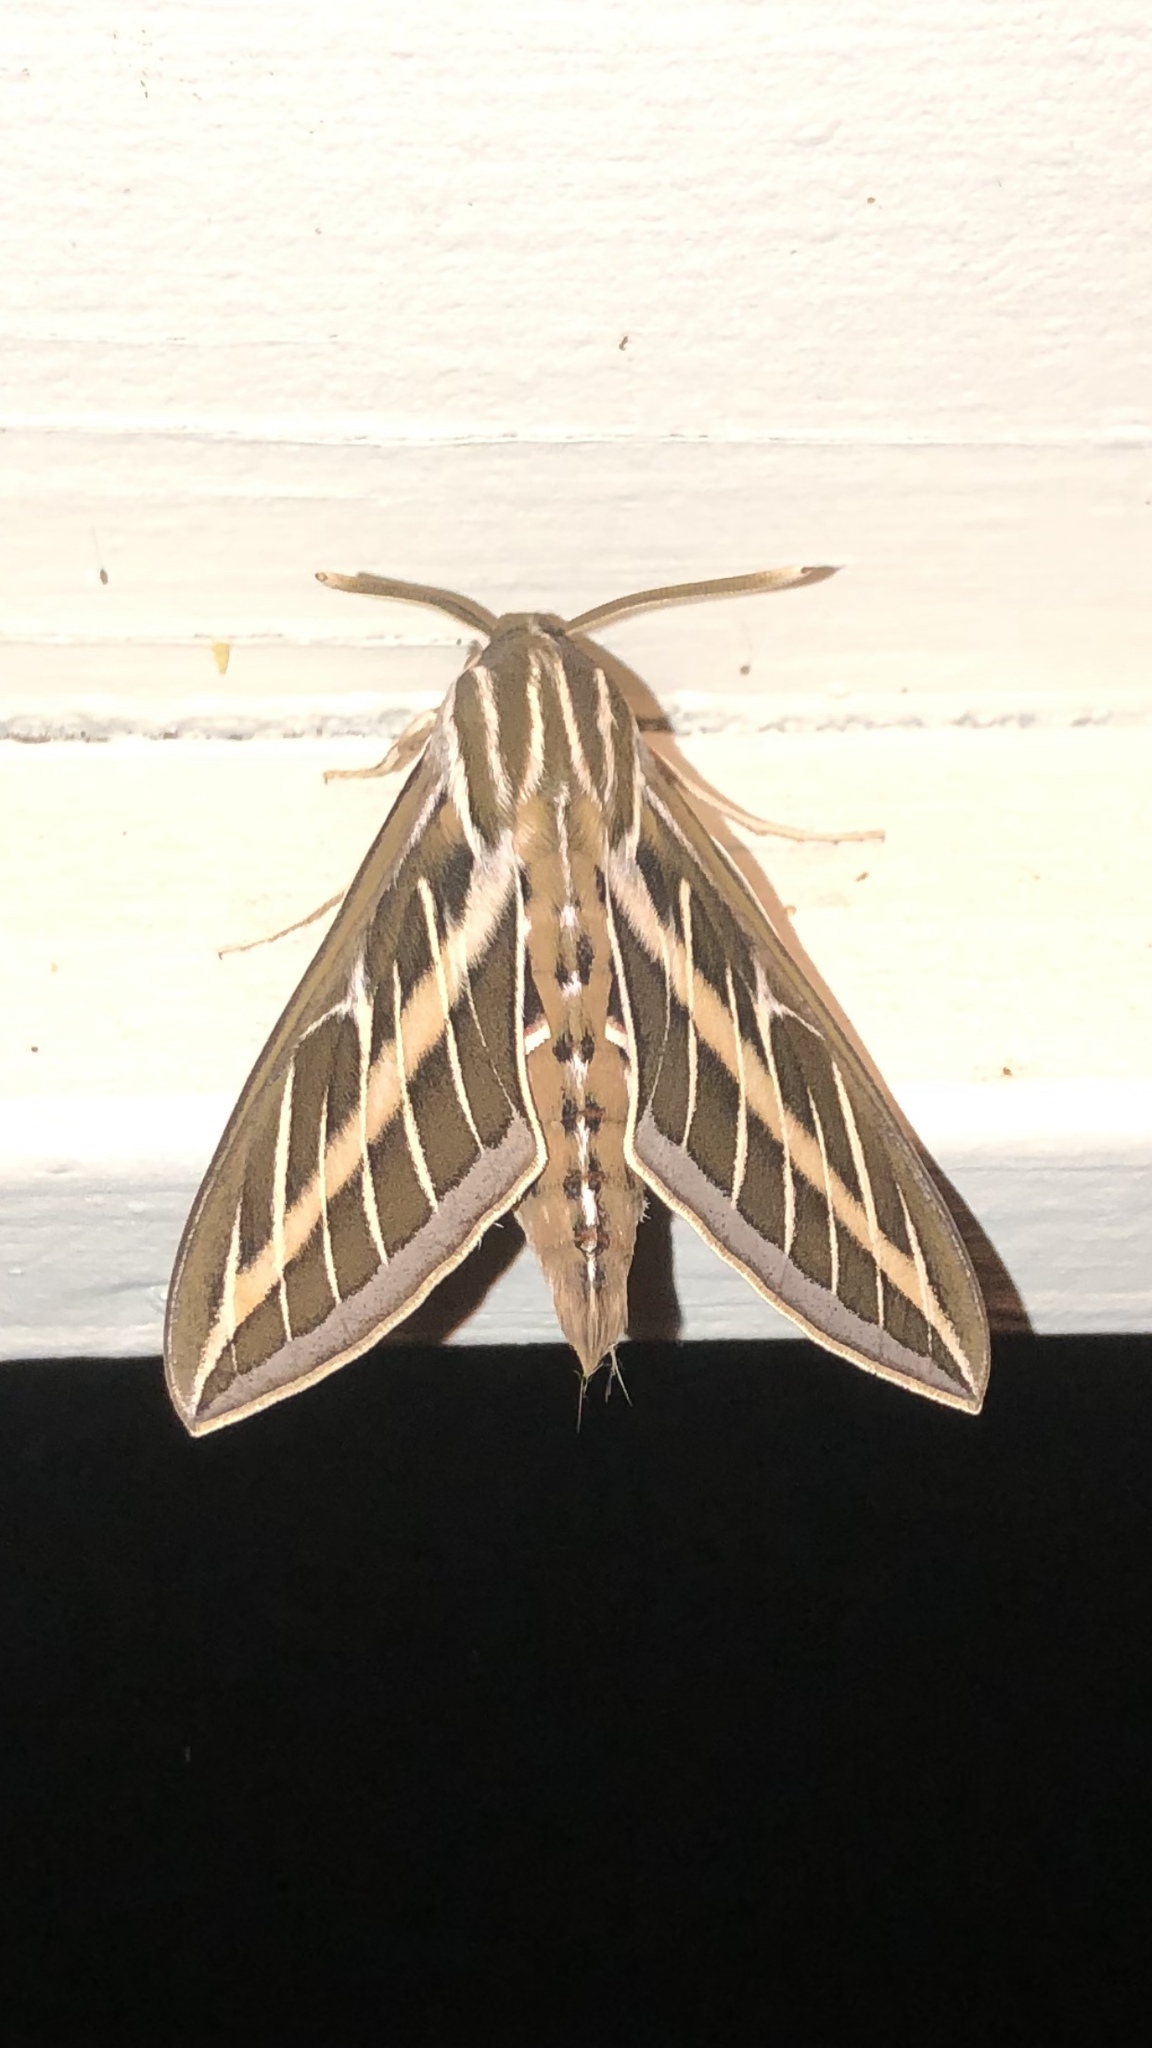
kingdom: Animalia
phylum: Arthropoda
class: Insecta
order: Lepidoptera
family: Sphingidae
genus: Hyles
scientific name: Hyles lineata
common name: White-lined sphinx
